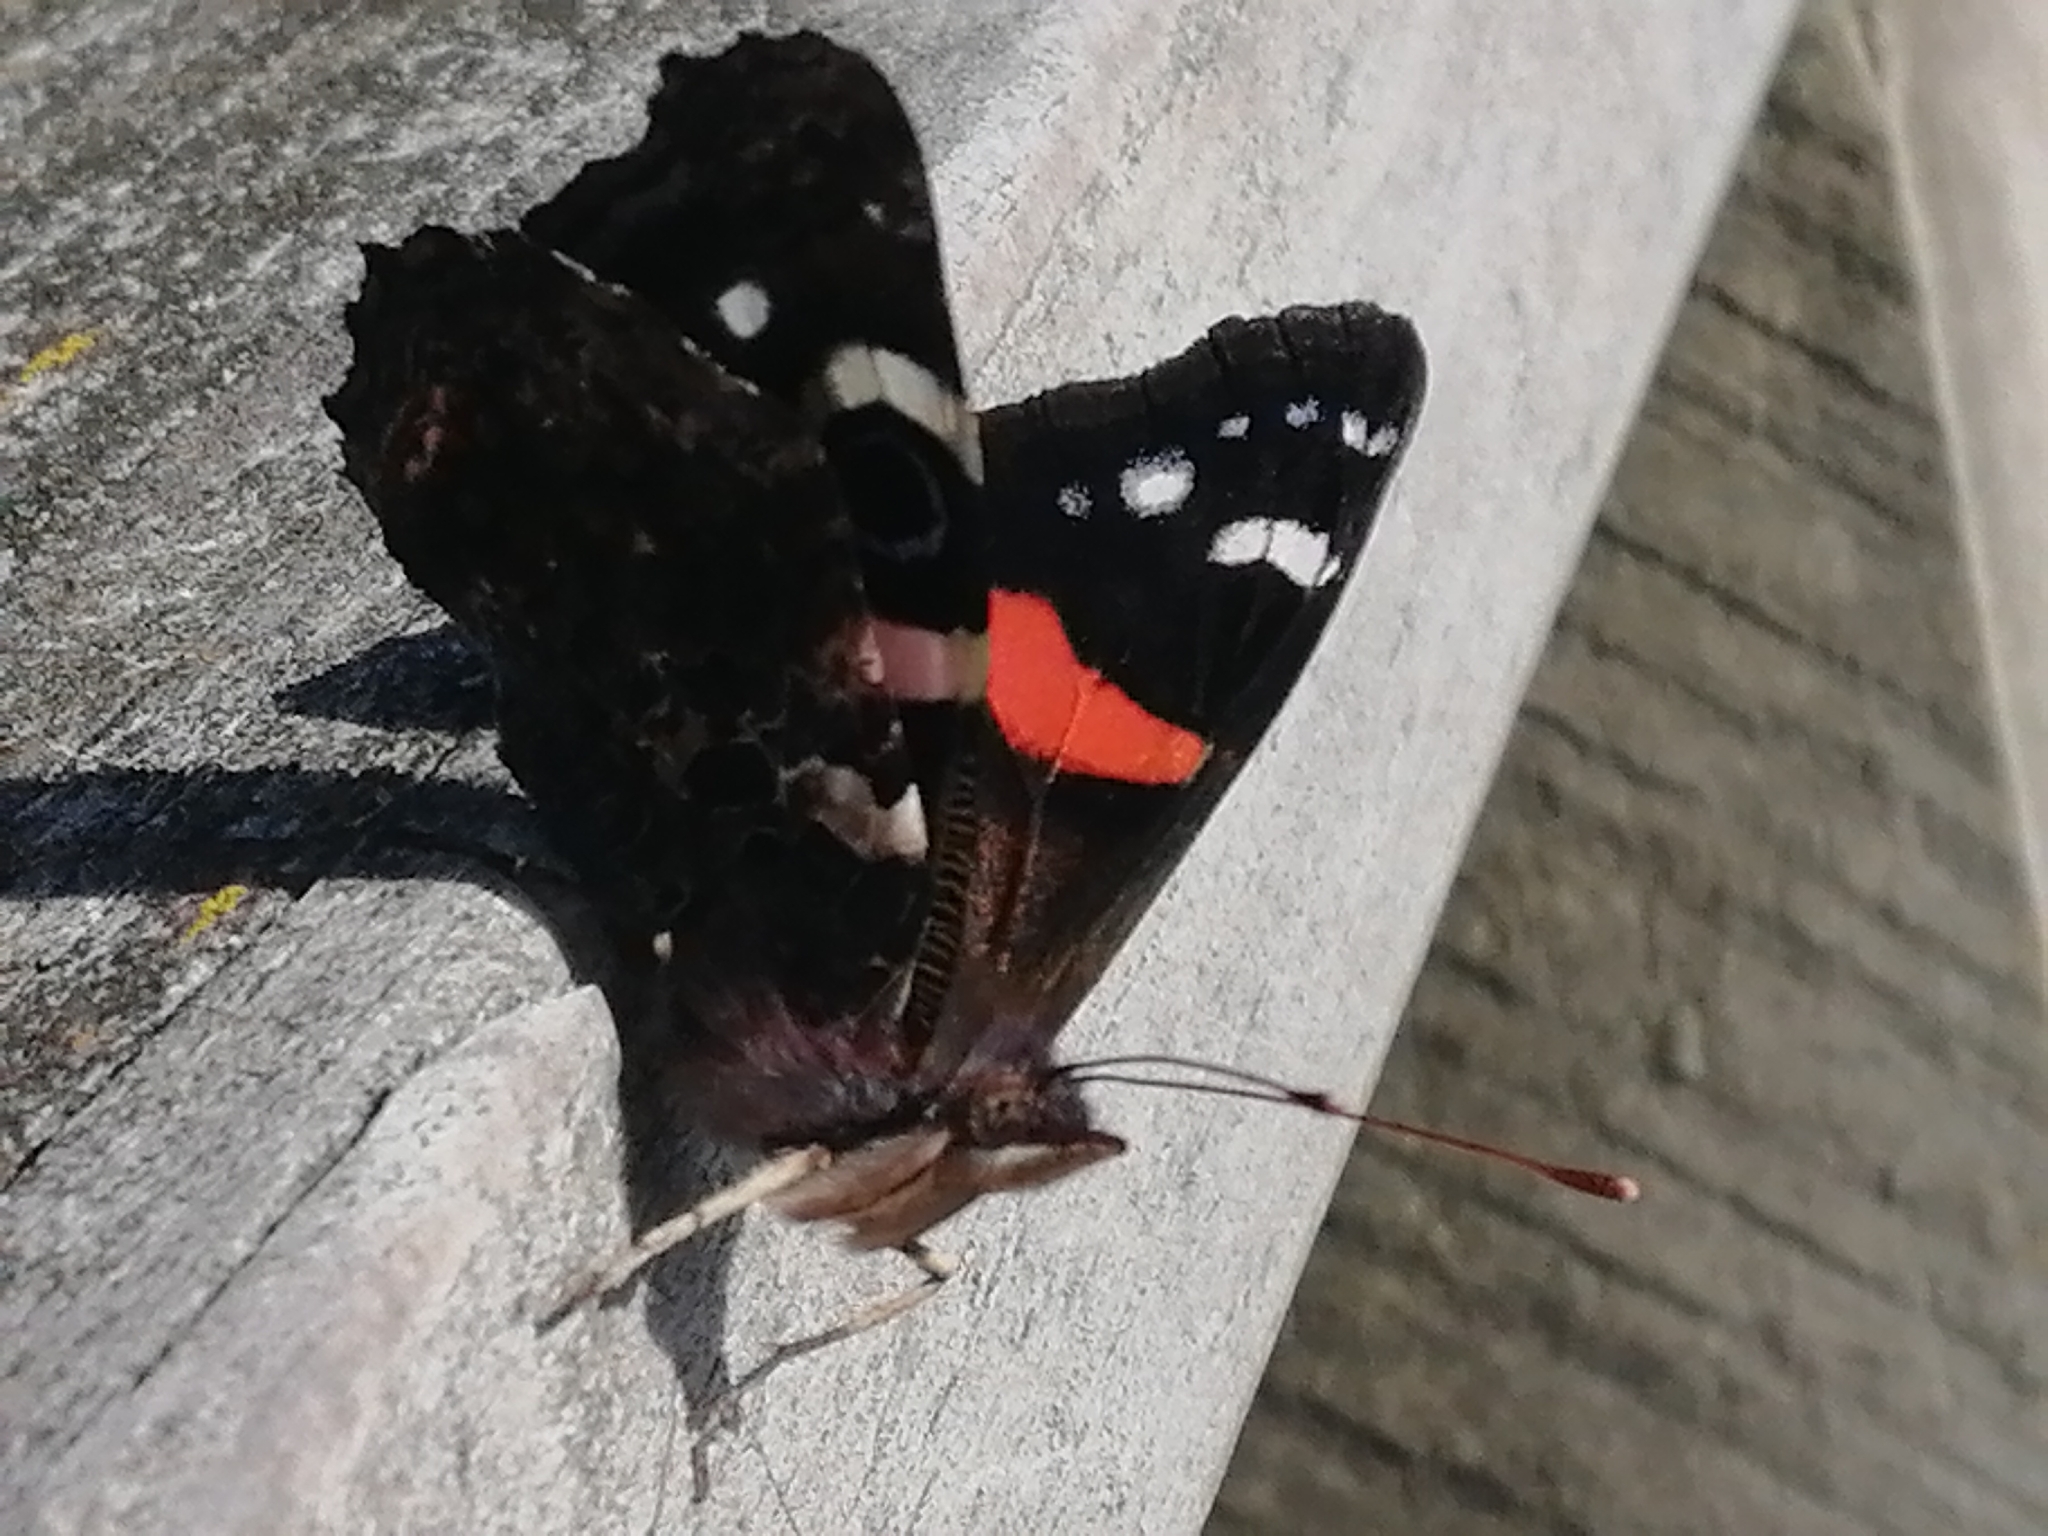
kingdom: Animalia
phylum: Arthropoda
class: Insecta
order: Lepidoptera
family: Nymphalidae
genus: Vanessa
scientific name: Vanessa gonerilla
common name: New zealand red admiral
